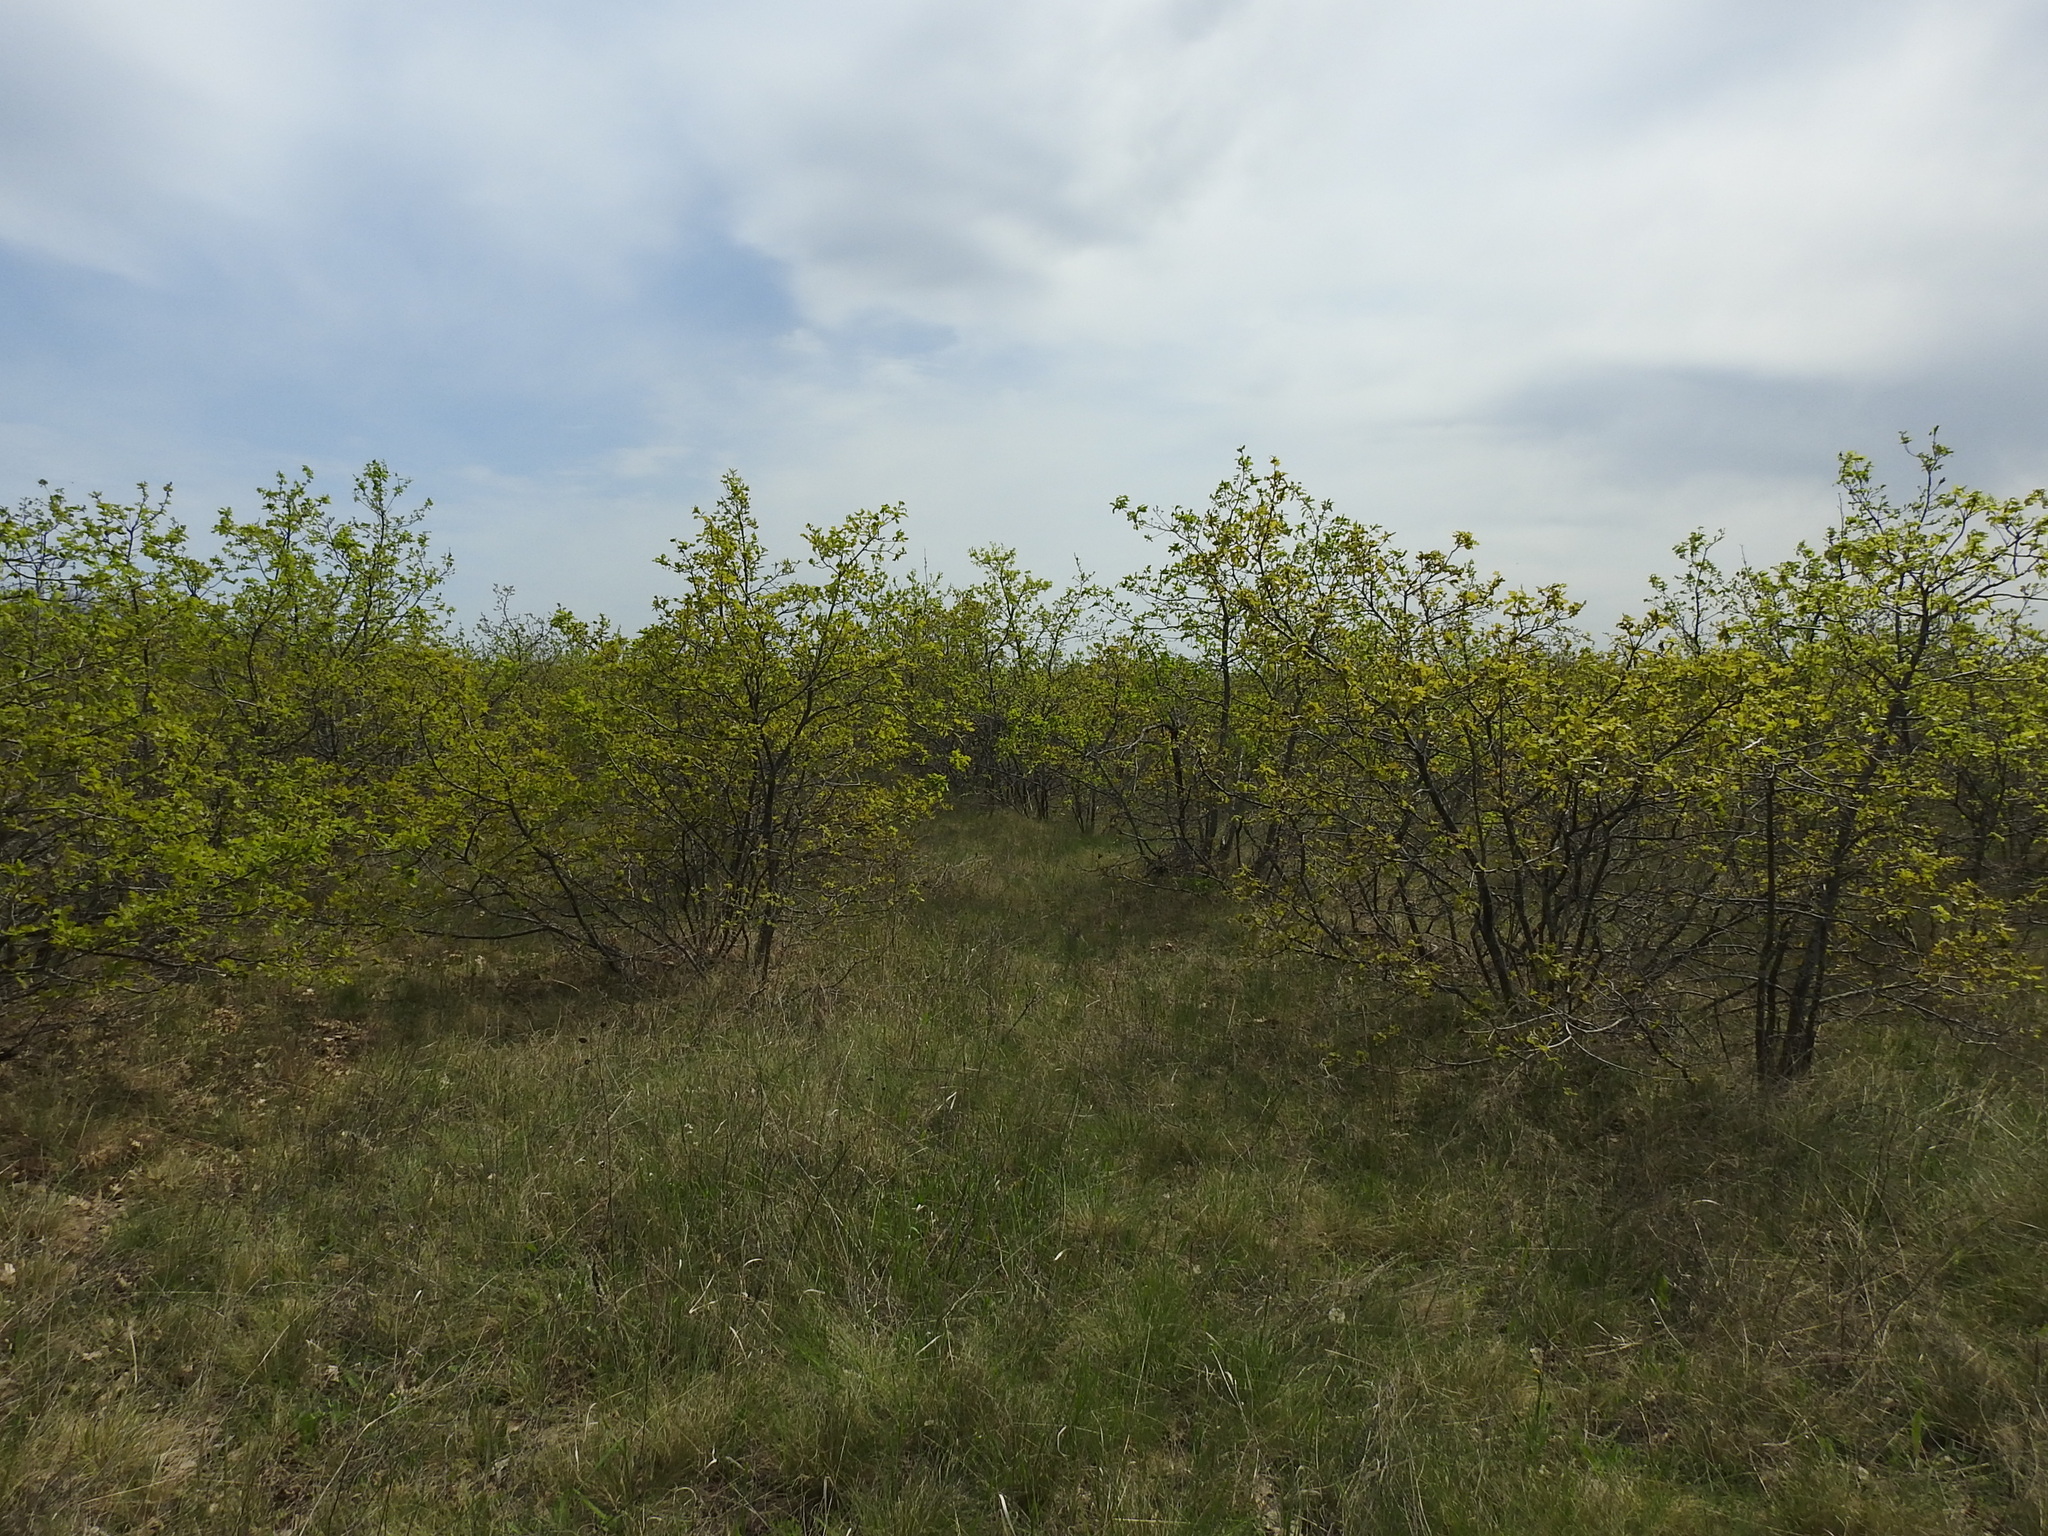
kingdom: Plantae
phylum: Tracheophyta
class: Magnoliopsida
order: Fagales
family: Fagaceae
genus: Quercus
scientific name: Quercus robur
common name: Pedunculate oak
